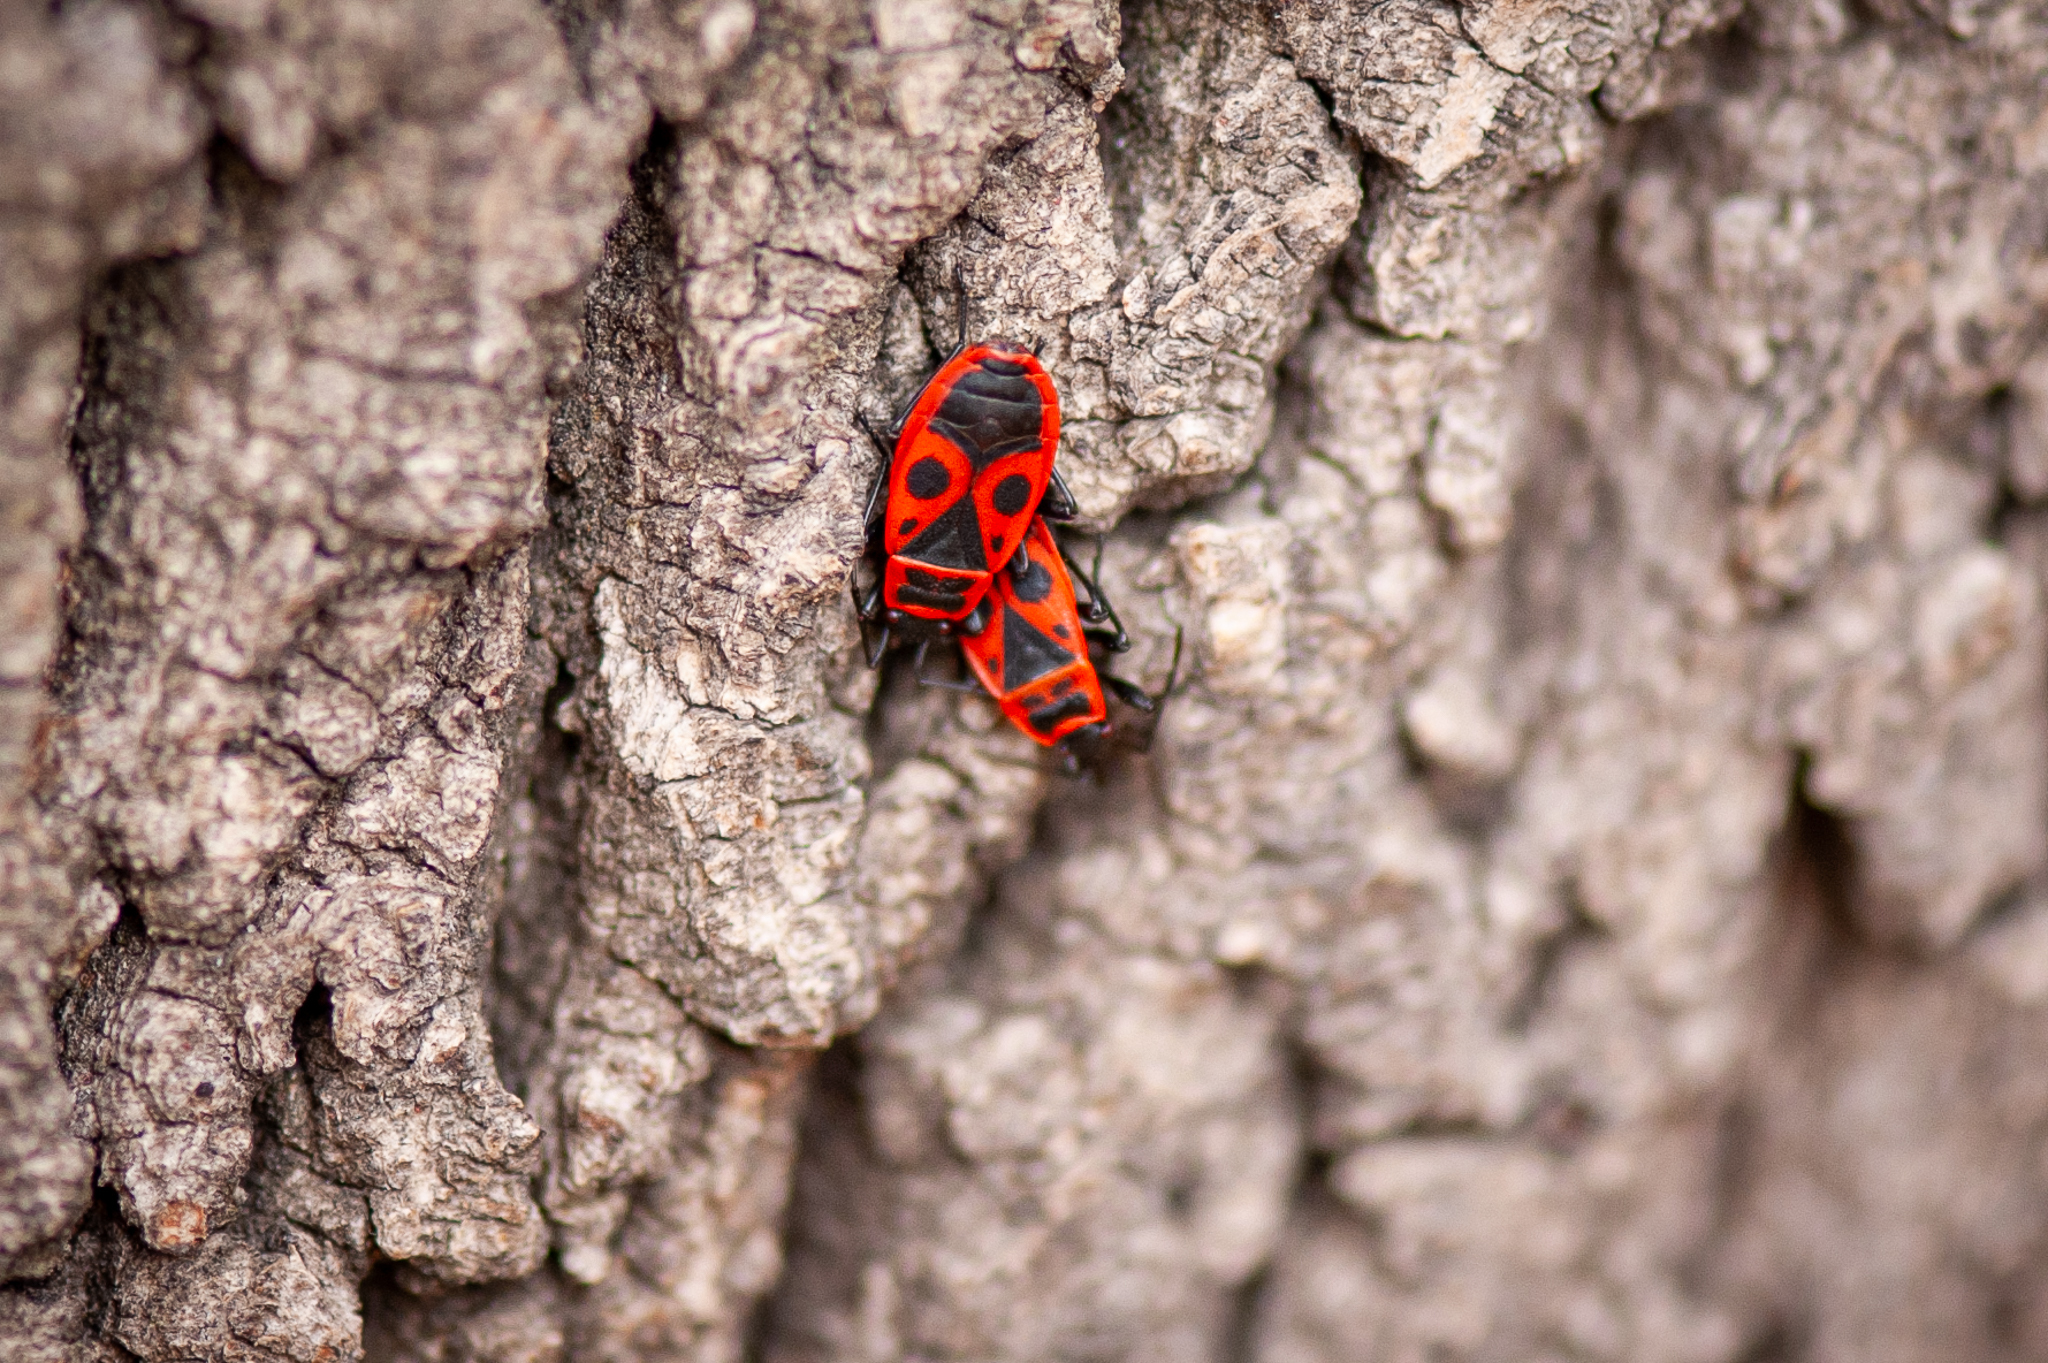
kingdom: Animalia
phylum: Arthropoda
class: Insecta
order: Hemiptera
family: Pyrrhocoridae
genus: Pyrrhocoris
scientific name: Pyrrhocoris apterus
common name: Firebug
